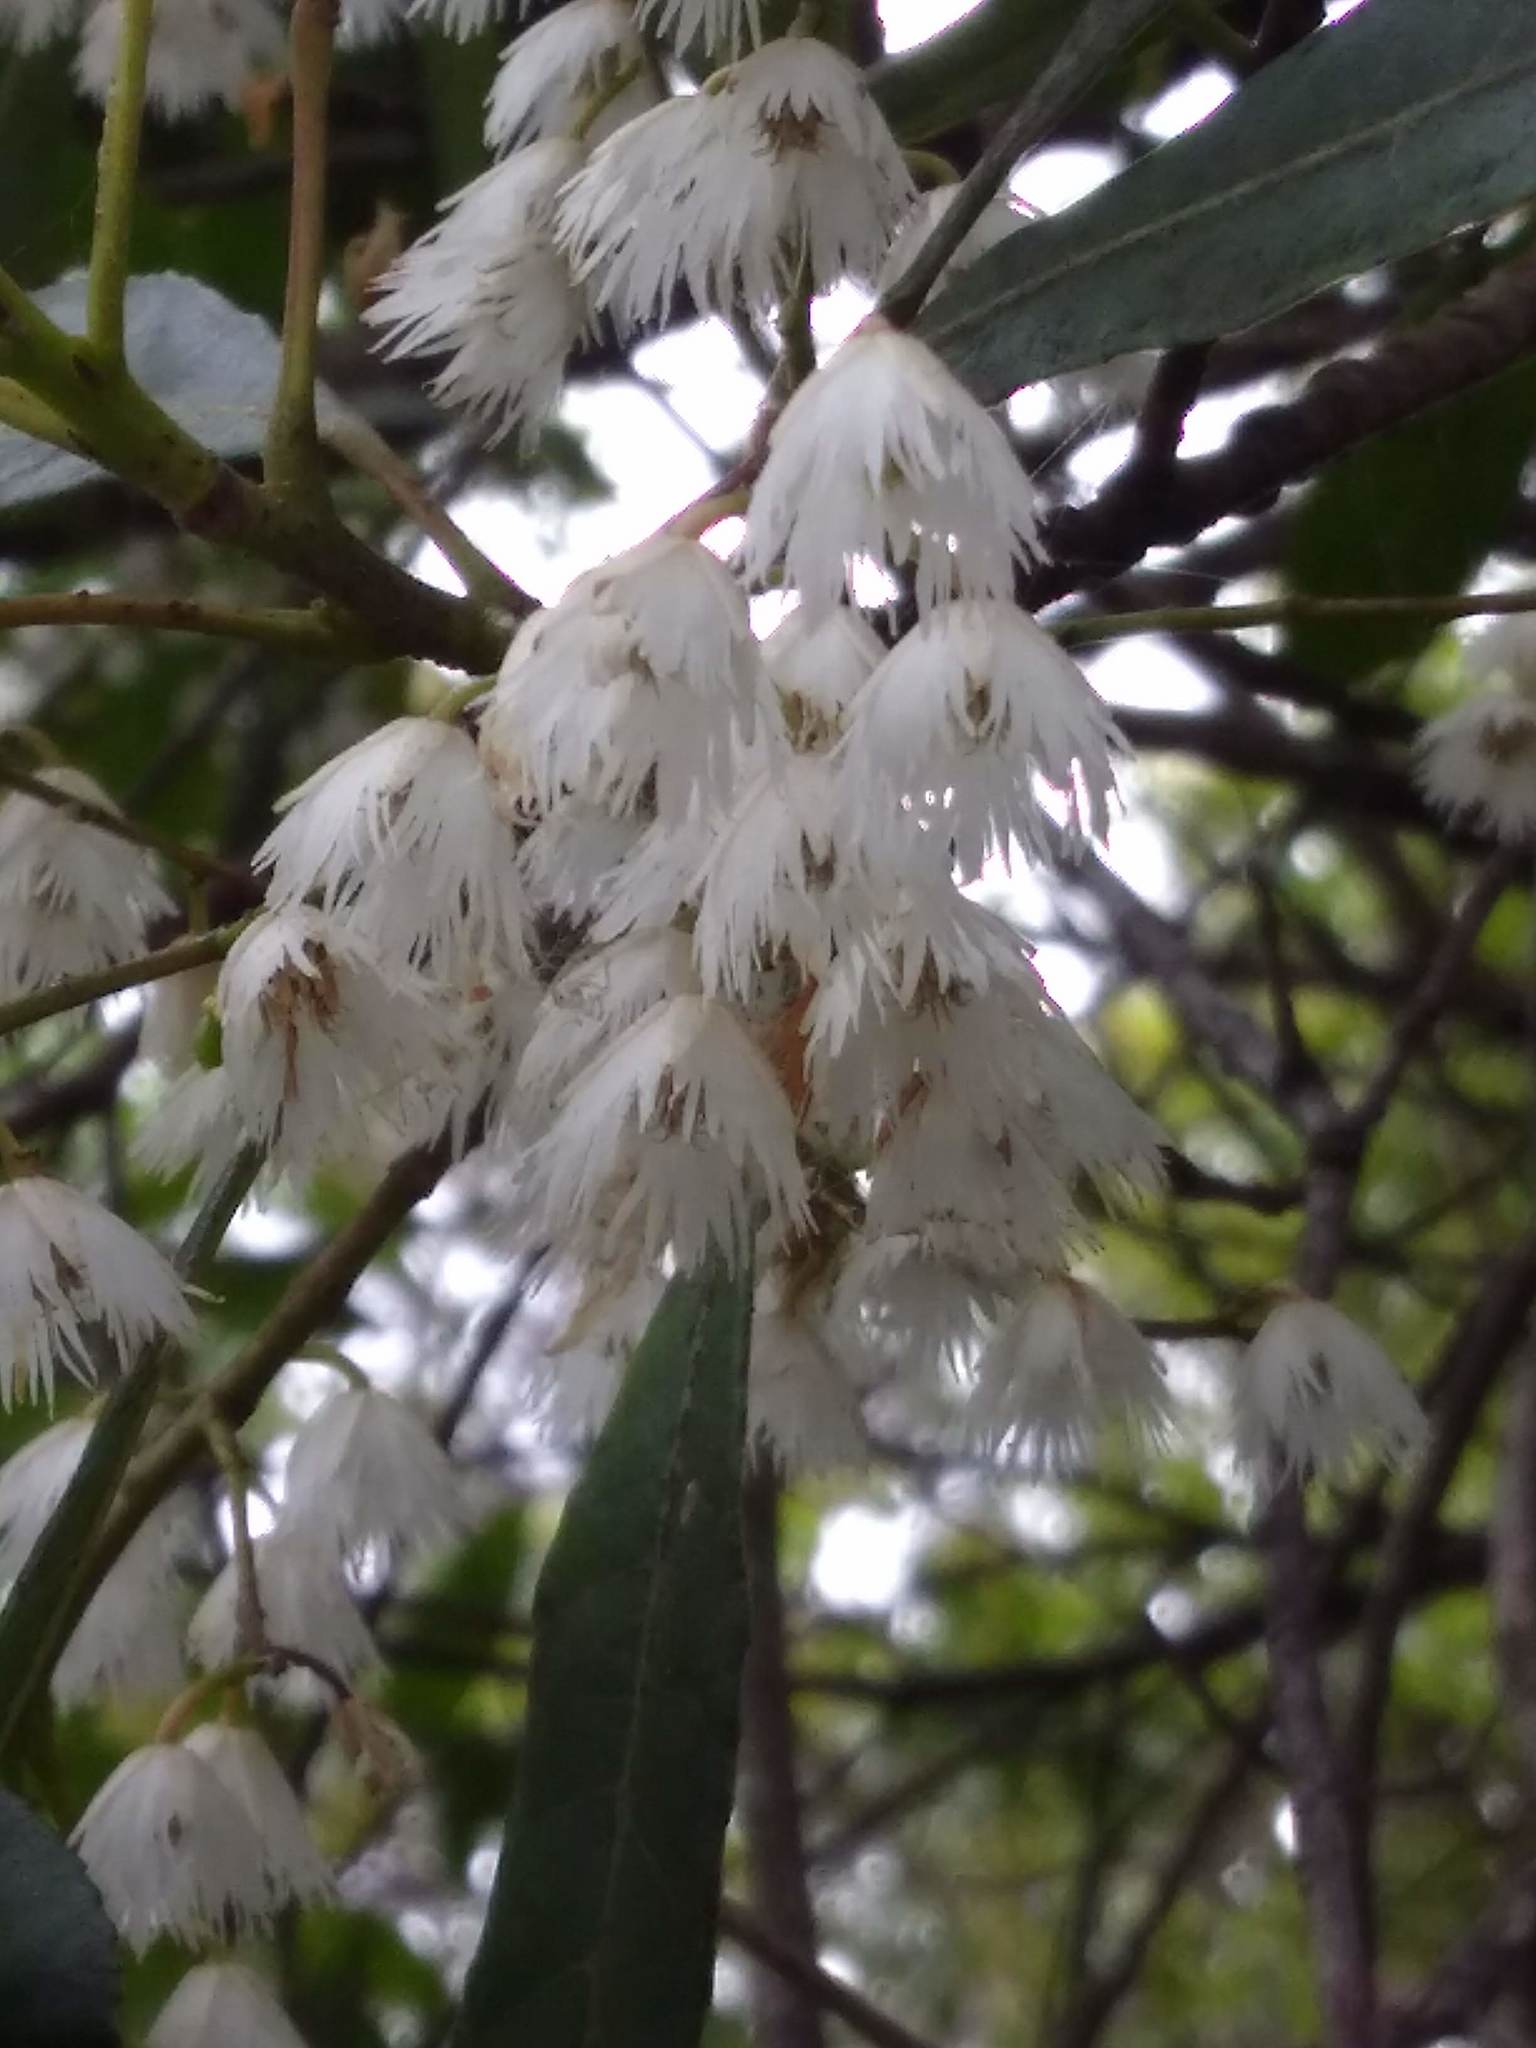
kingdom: Plantae
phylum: Tracheophyta
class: Magnoliopsida
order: Oxalidales
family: Elaeocarpaceae
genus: Elaeocarpus
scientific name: Elaeocarpus reticulatus
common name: Ash quandong
